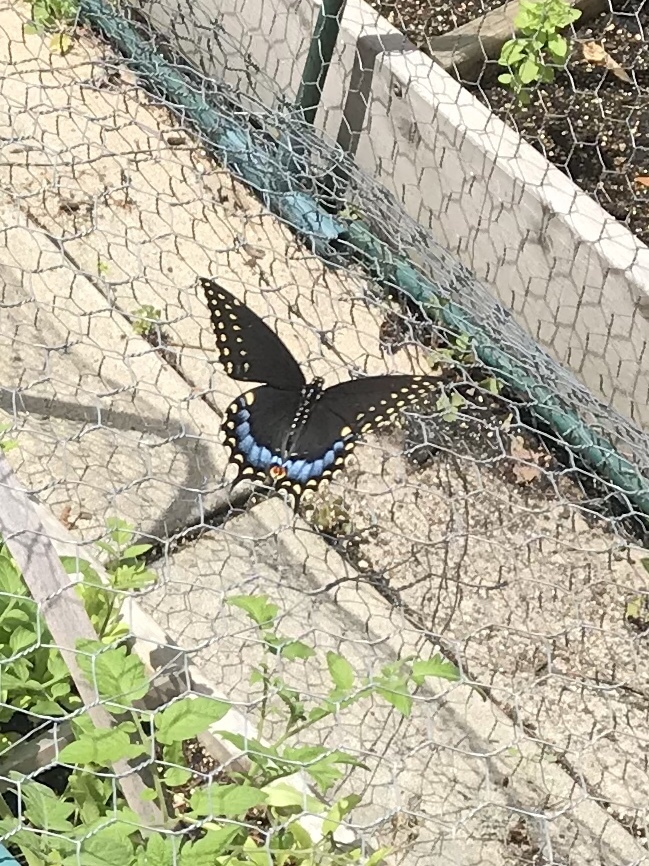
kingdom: Animalia
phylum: Arthropoda
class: Insecta
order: Lepidoptera
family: Papilionidae
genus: Papilio
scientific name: Papilio polyxenes
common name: Black swallowtail
